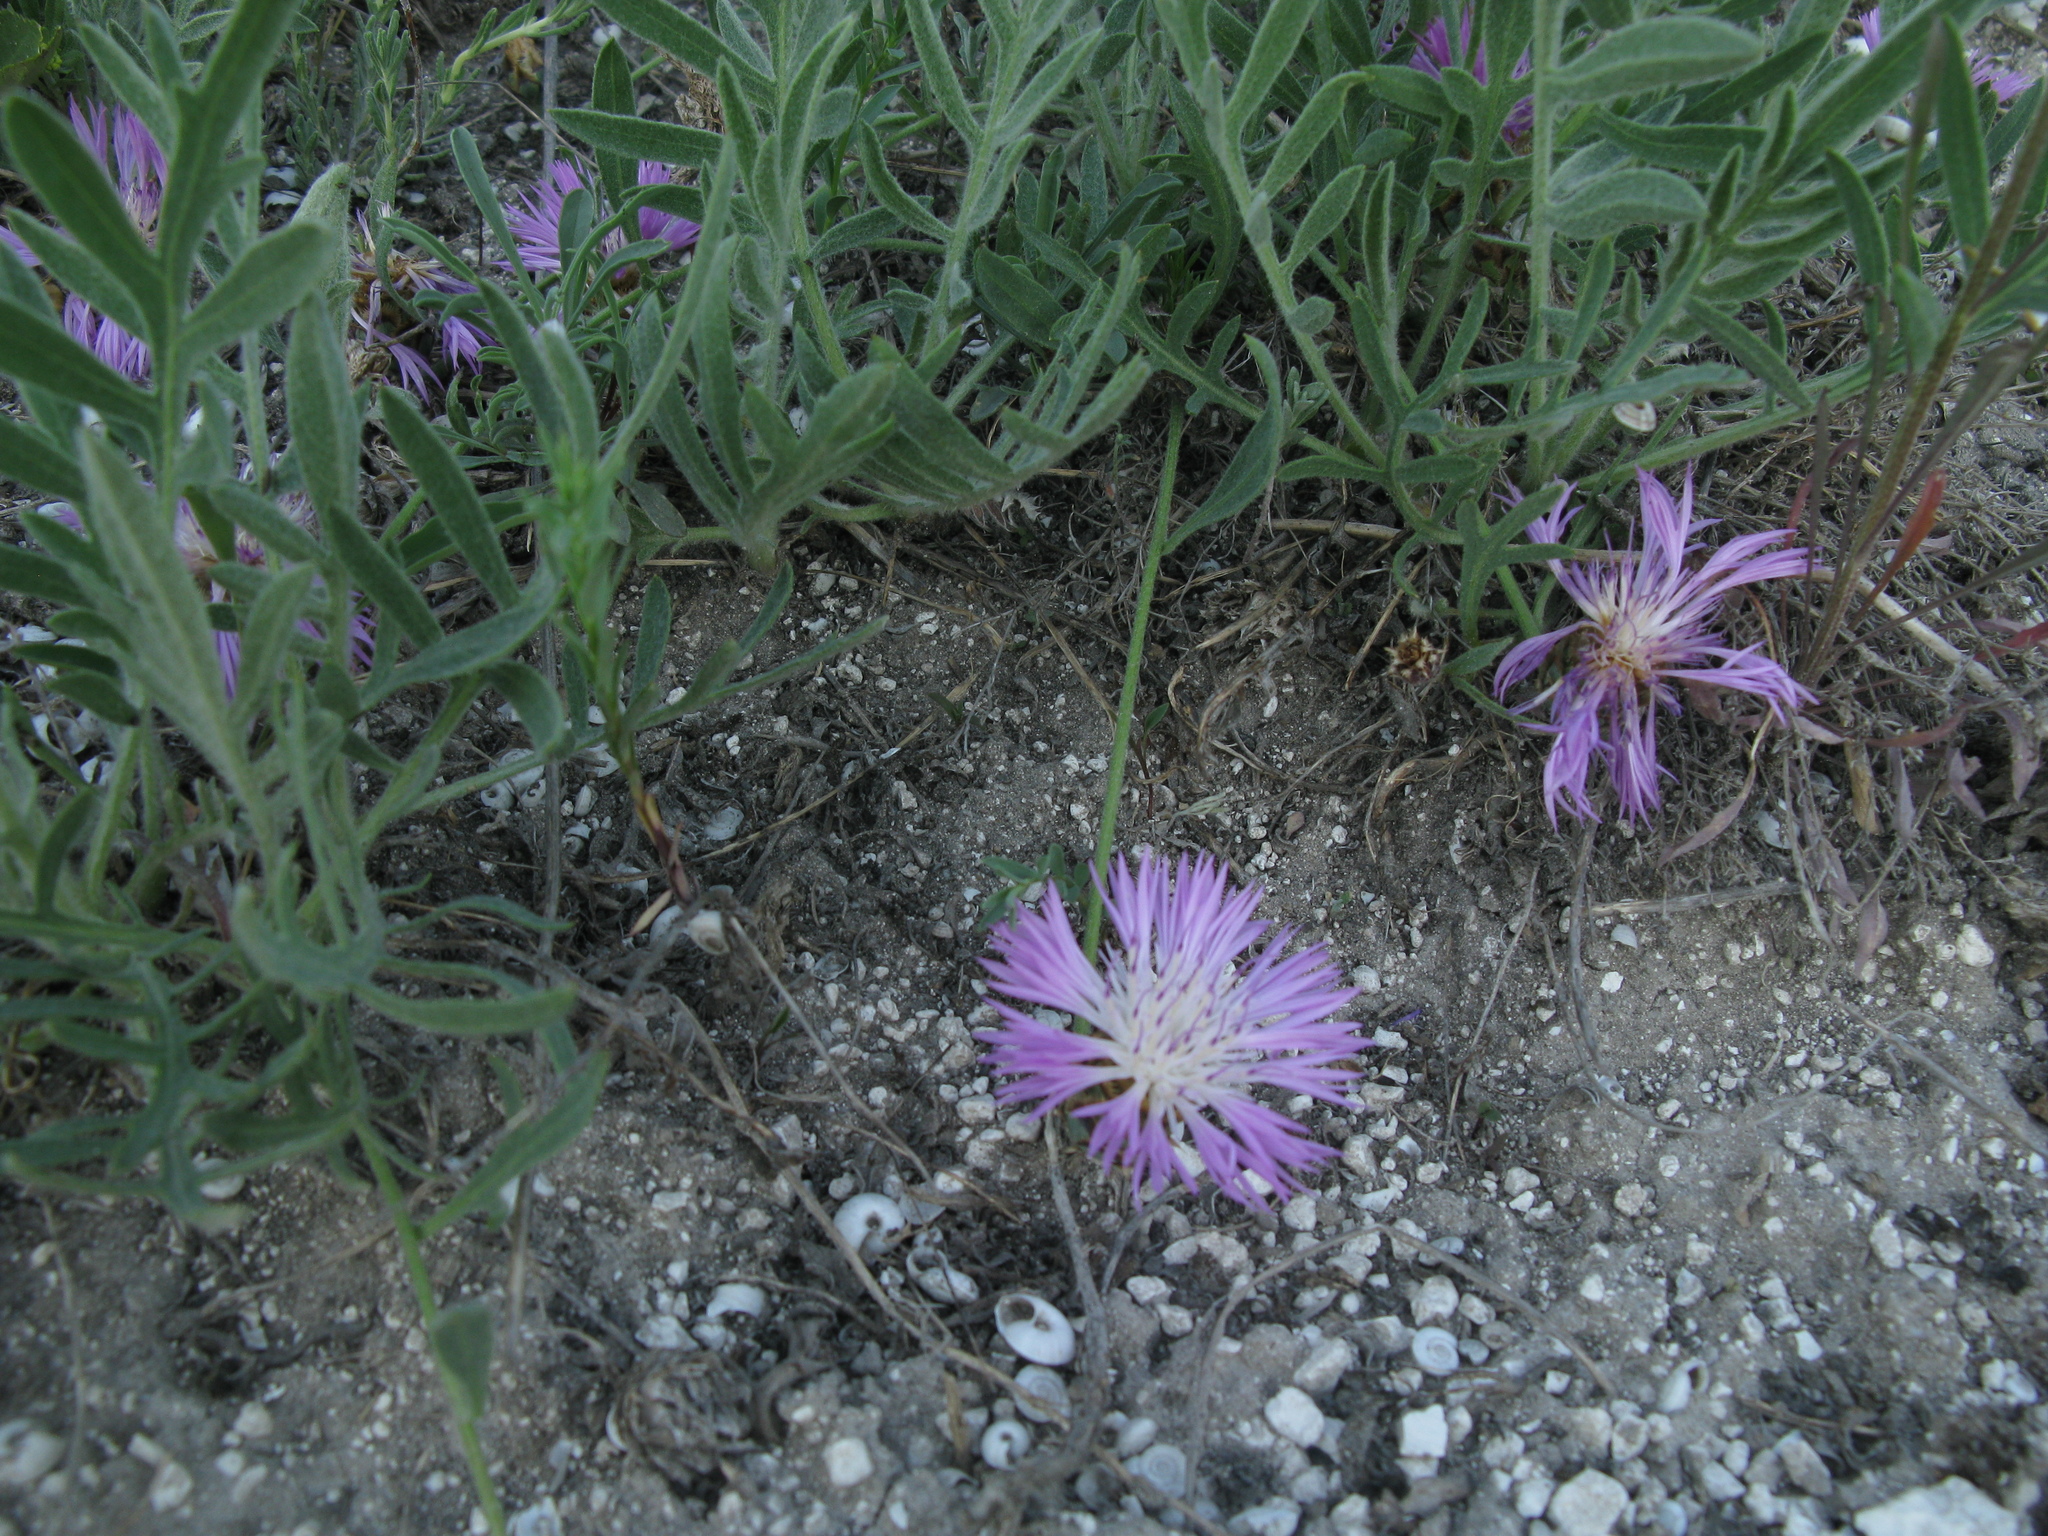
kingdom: Plantae
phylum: Tracheophyta
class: Magnoliopsida
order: Asterales
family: Asteraceae
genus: Psephellus
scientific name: Psephellus marschallianus
